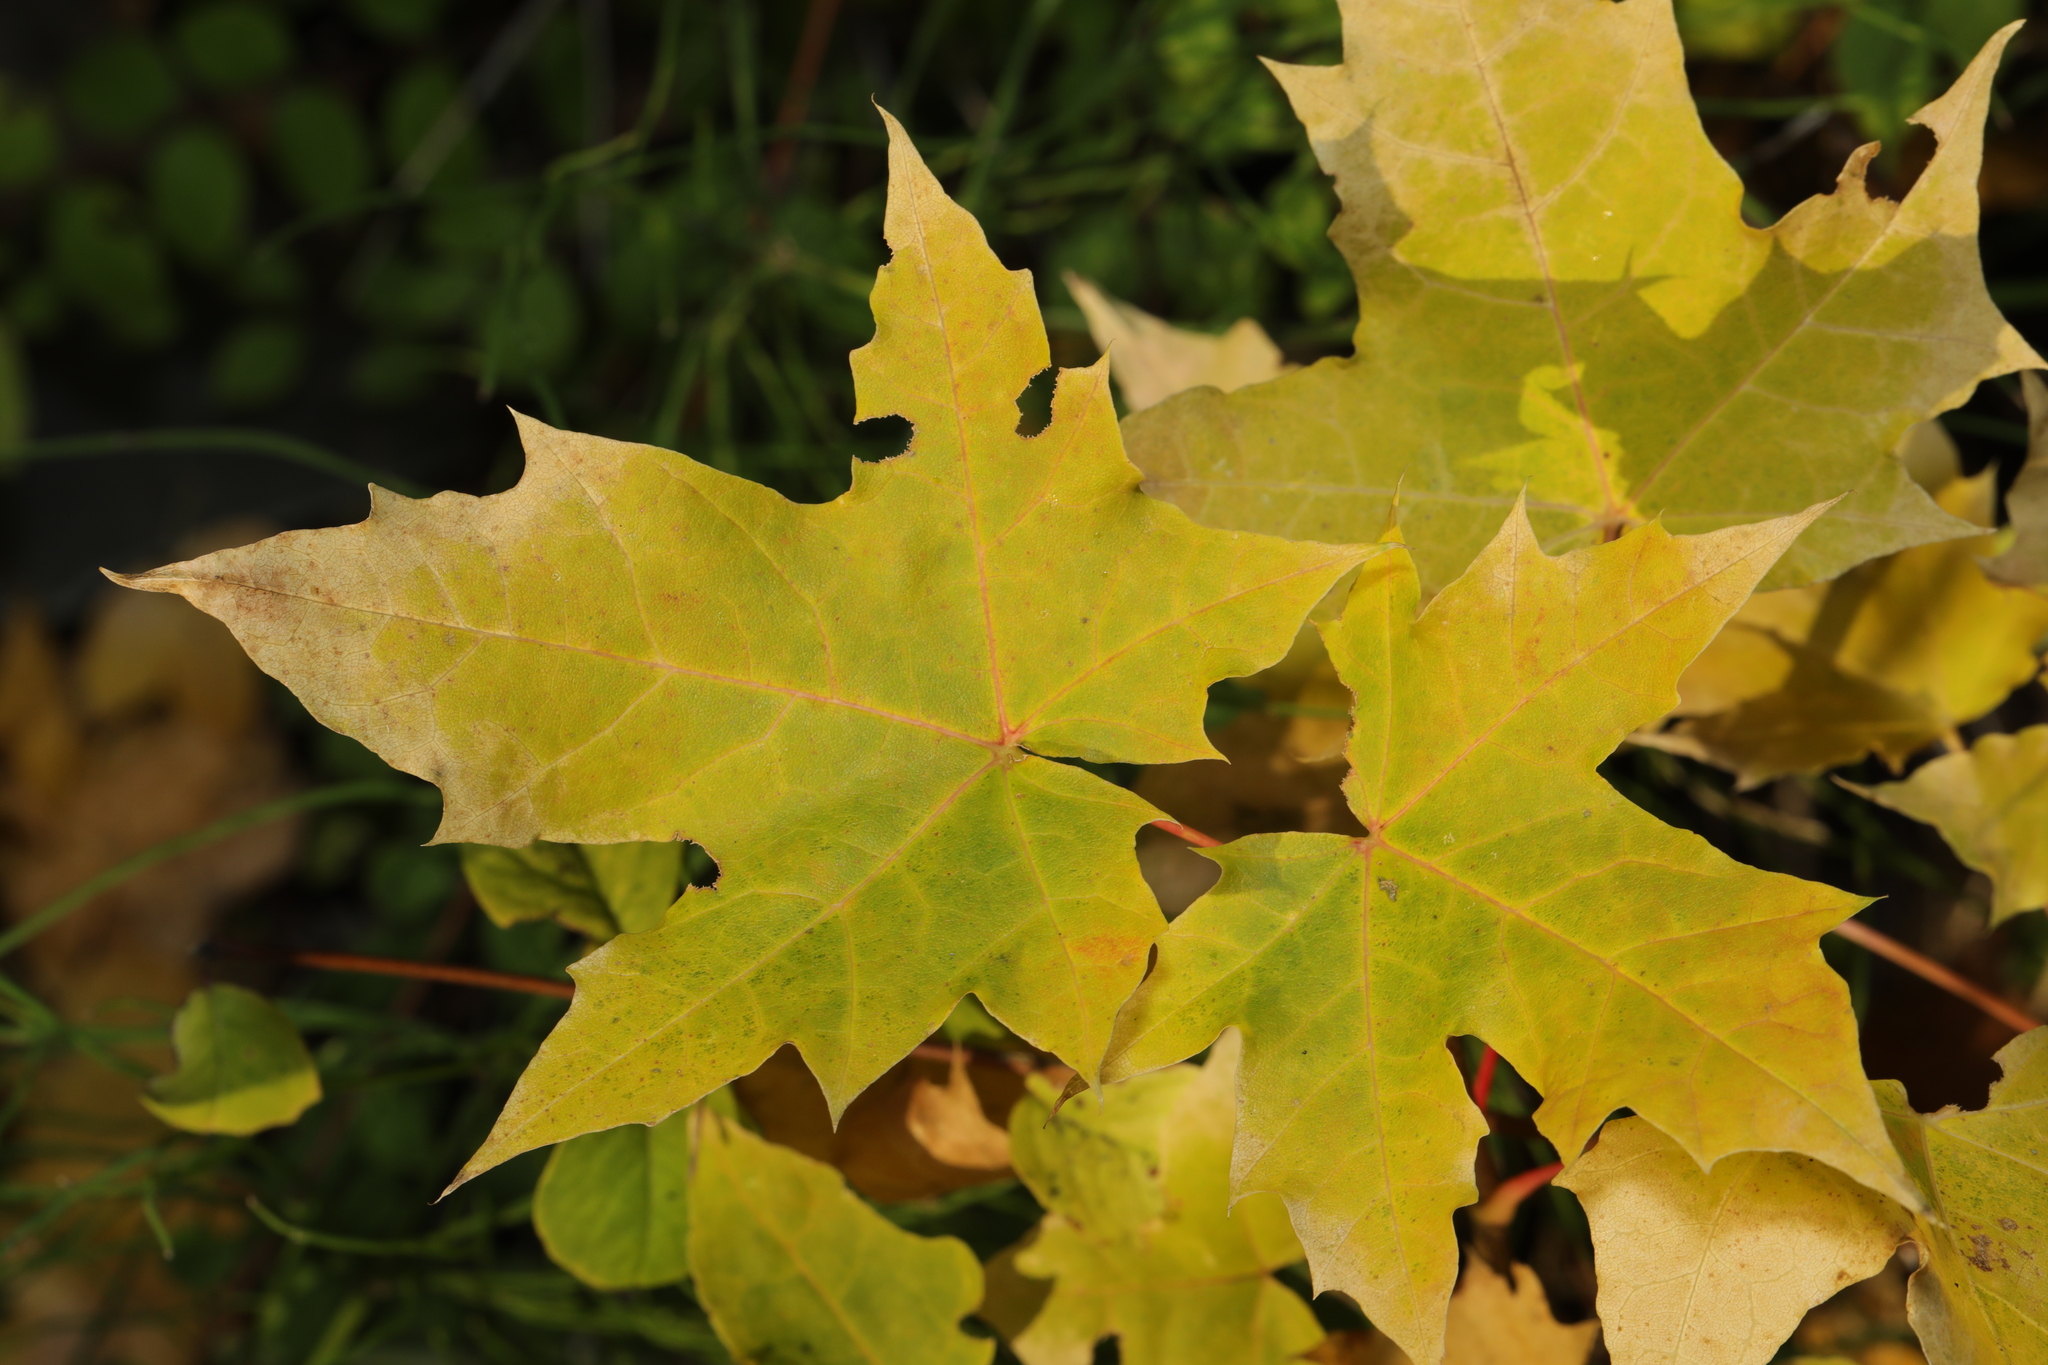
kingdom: Plantae
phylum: Tracheophyta
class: Magnoliopsida
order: Sapindales
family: Sapindaceae
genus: Acer
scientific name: Acer platanoides
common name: Norway maple
